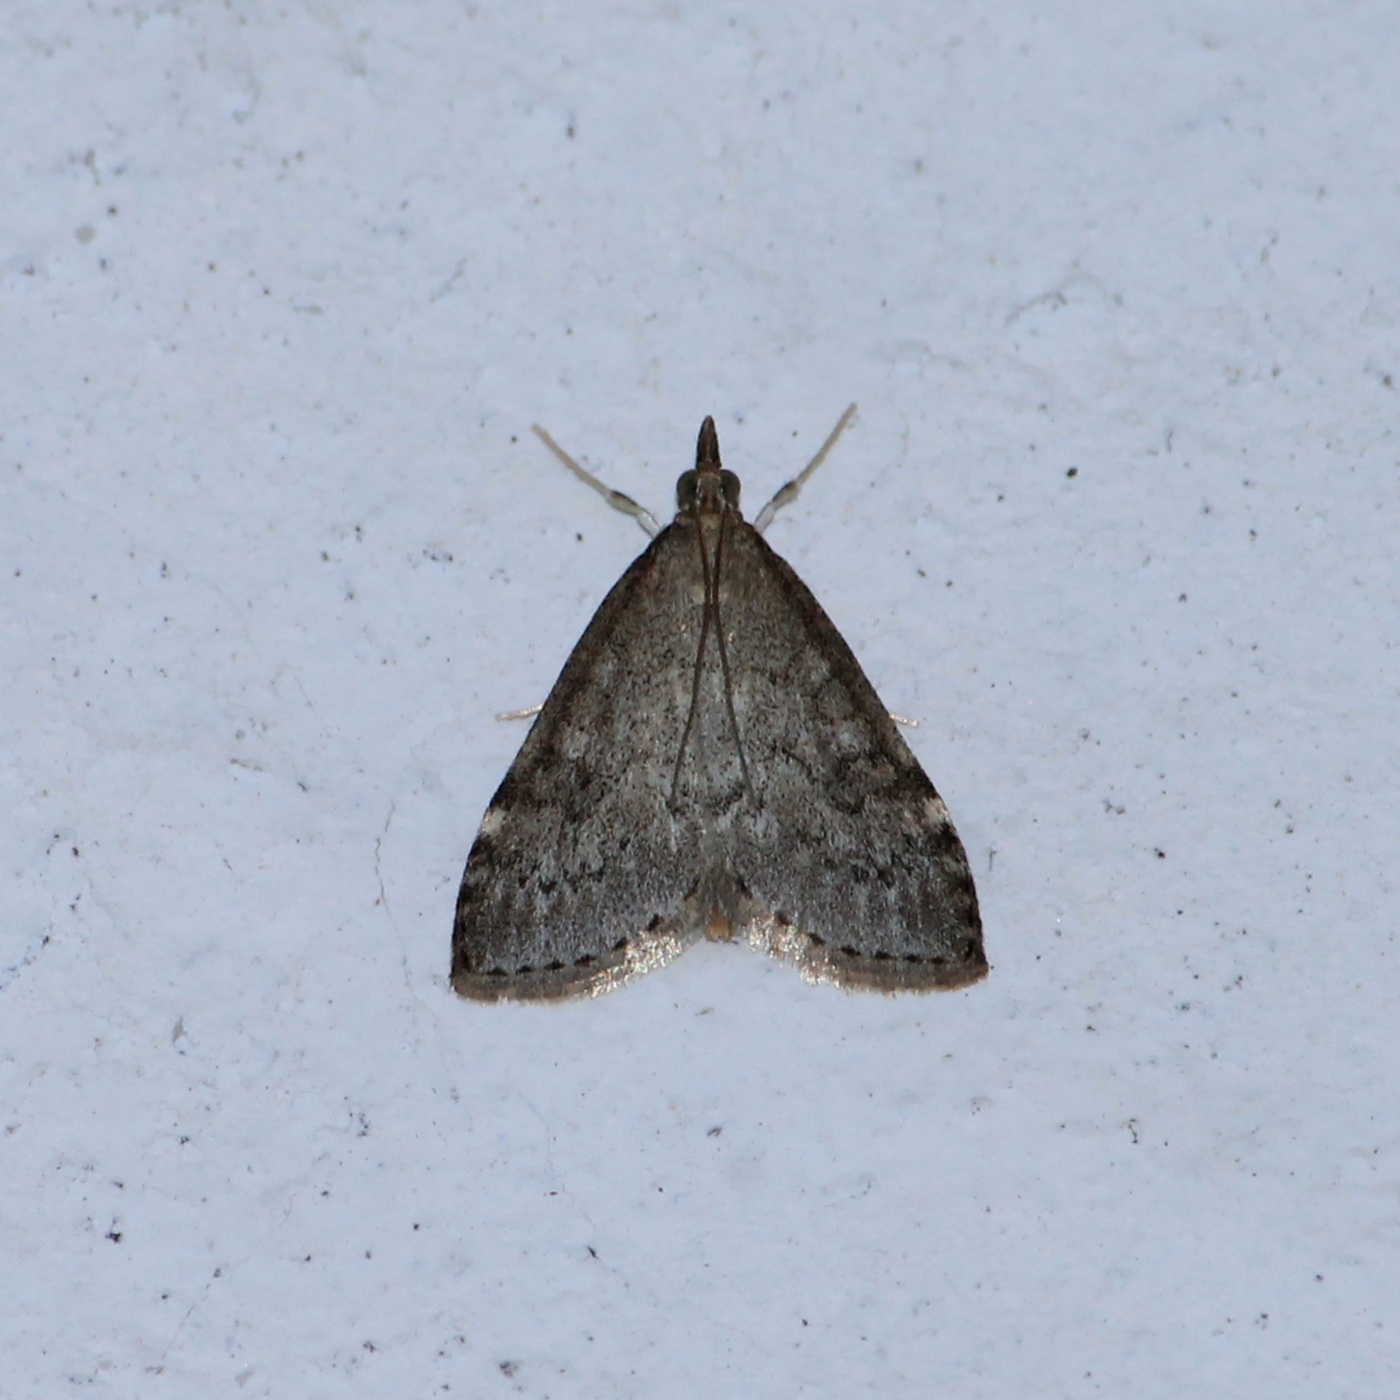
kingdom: Animalia
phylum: Arthropoda
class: Insecta
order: Lepidoptera
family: Crambidae
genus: Udea
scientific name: Udea prunalis
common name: Dusky pearl
